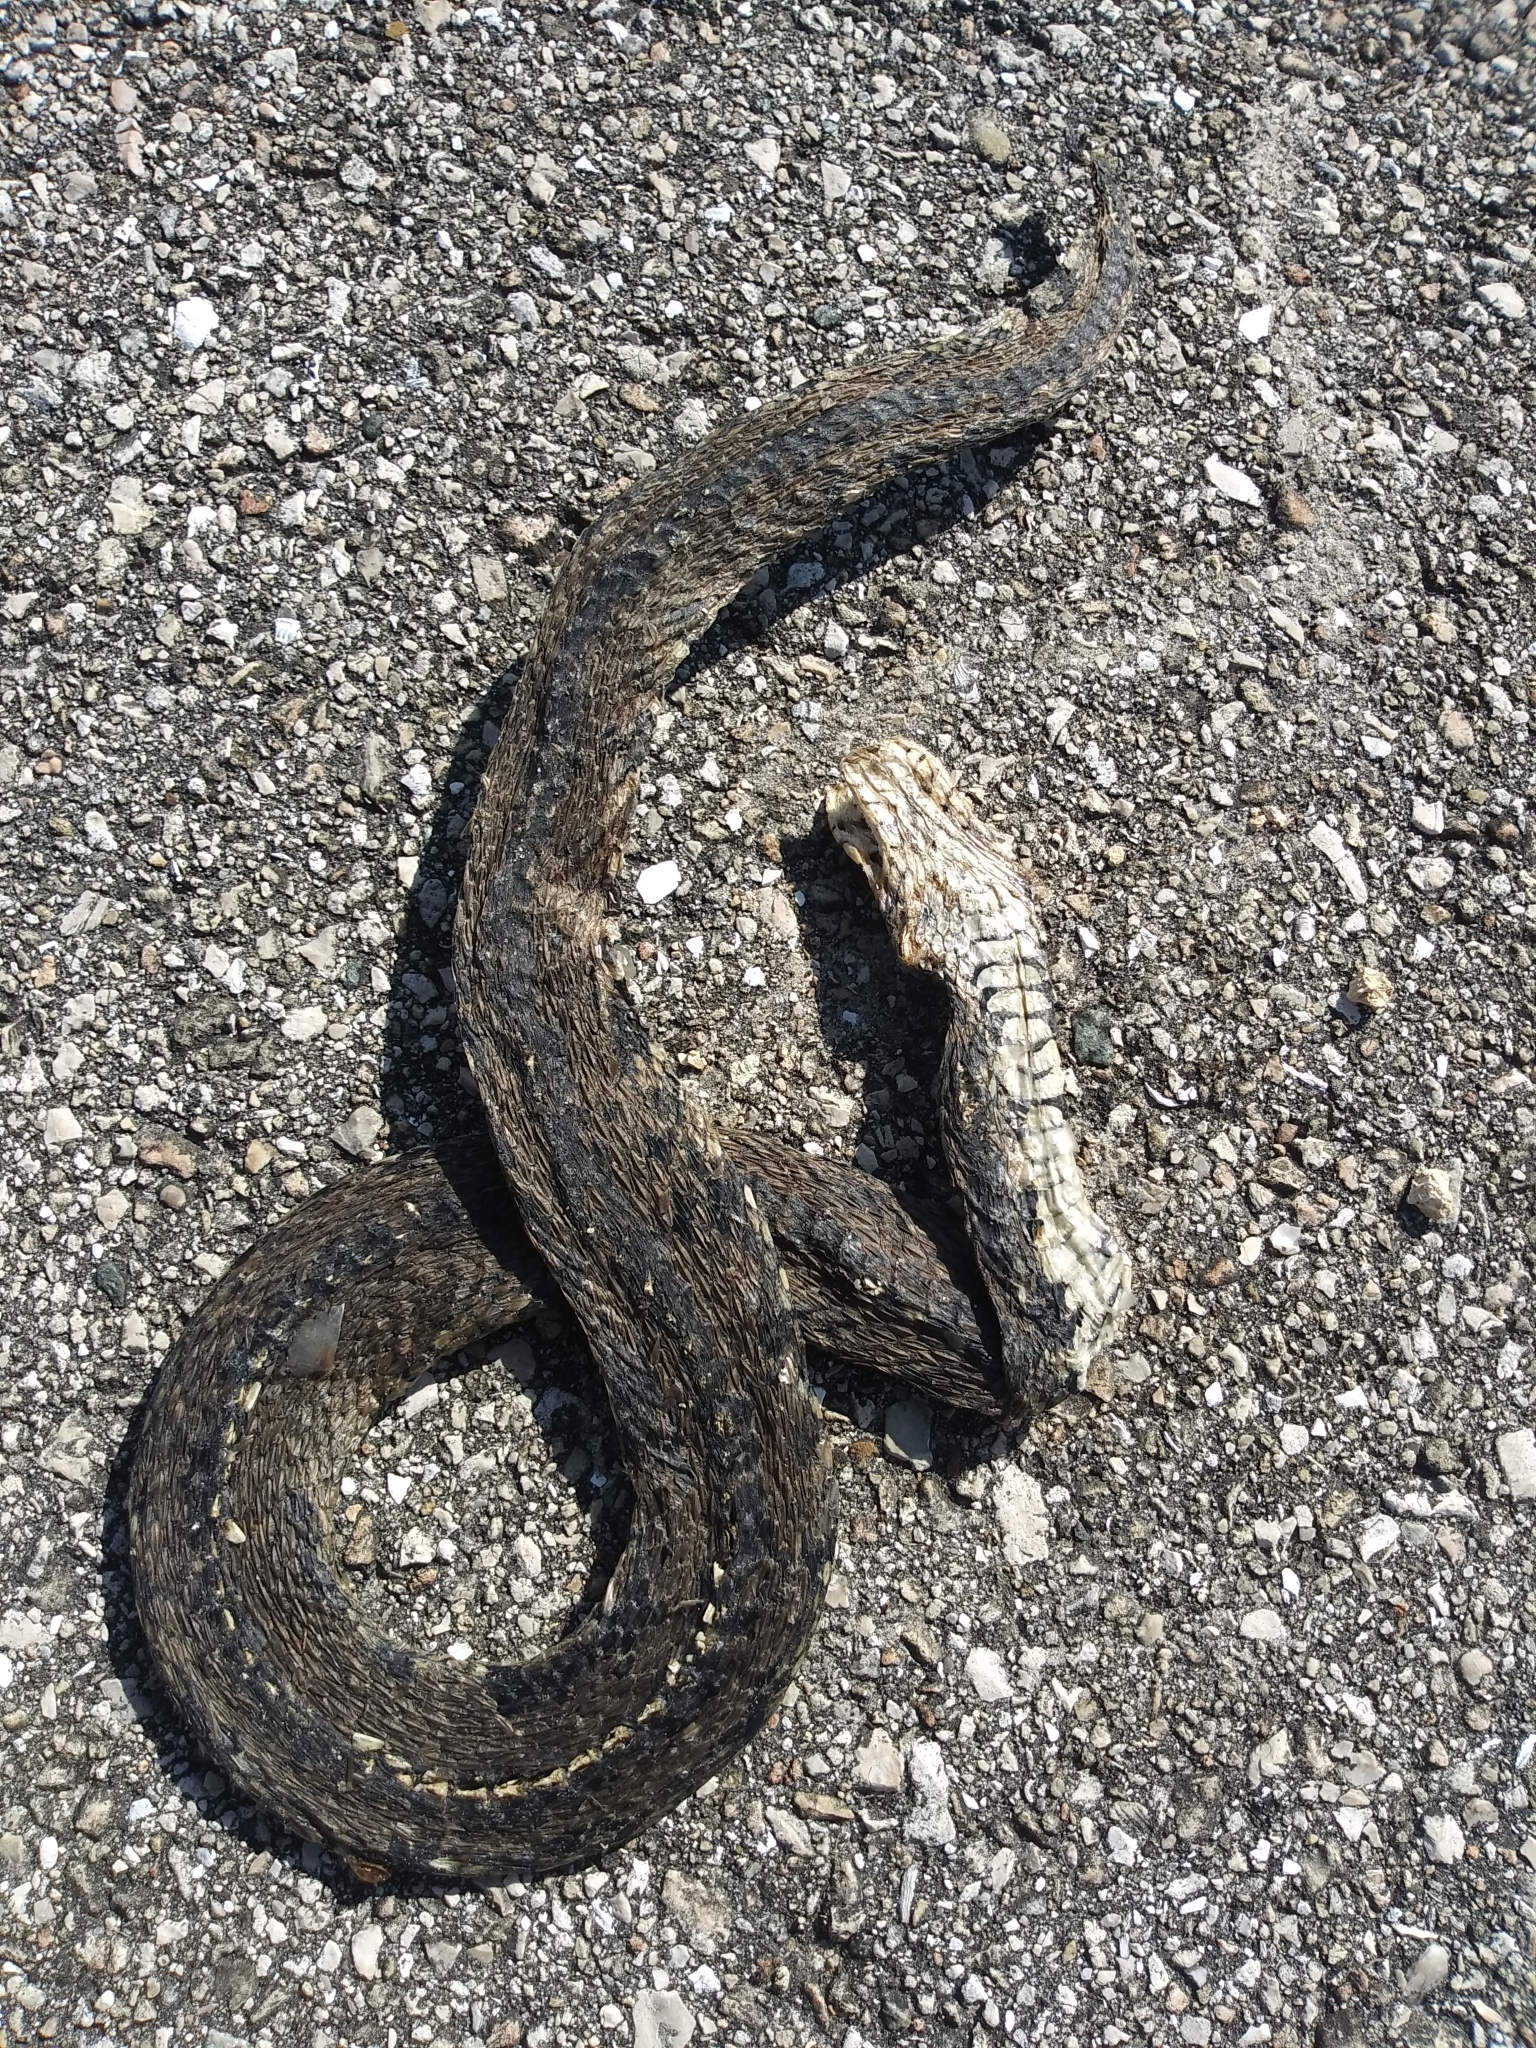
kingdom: Animalia
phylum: Chordata
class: Squamata
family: Colubridae
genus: Nerodia
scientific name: Nerodia fasciata
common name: Southern water snake
